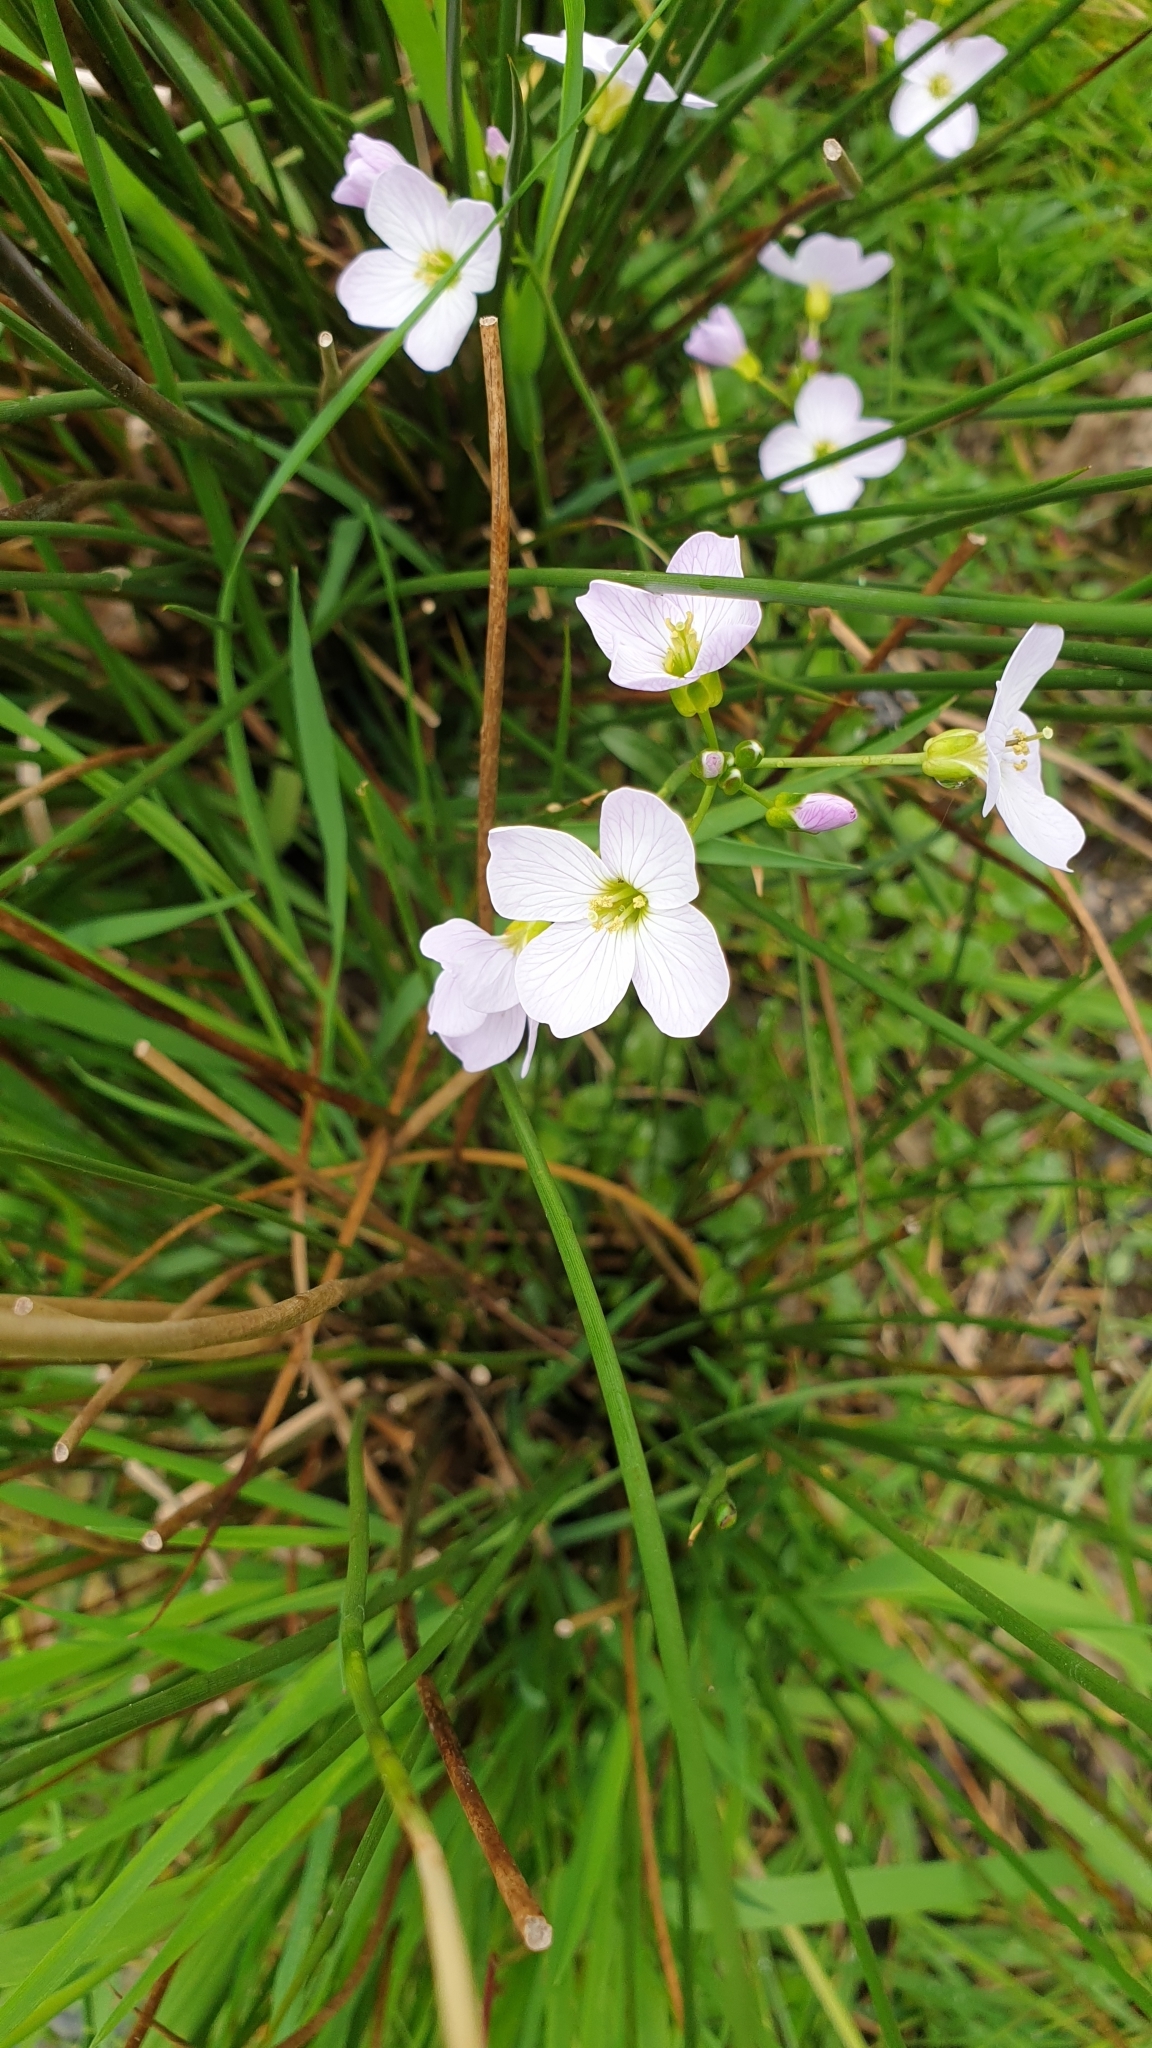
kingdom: Plantae
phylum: Tracheophyta
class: Magnoliopsida
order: Brassicales
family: Brassicaceae
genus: Cardamine
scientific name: Cardamine pratensis
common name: Cuckoo flower
